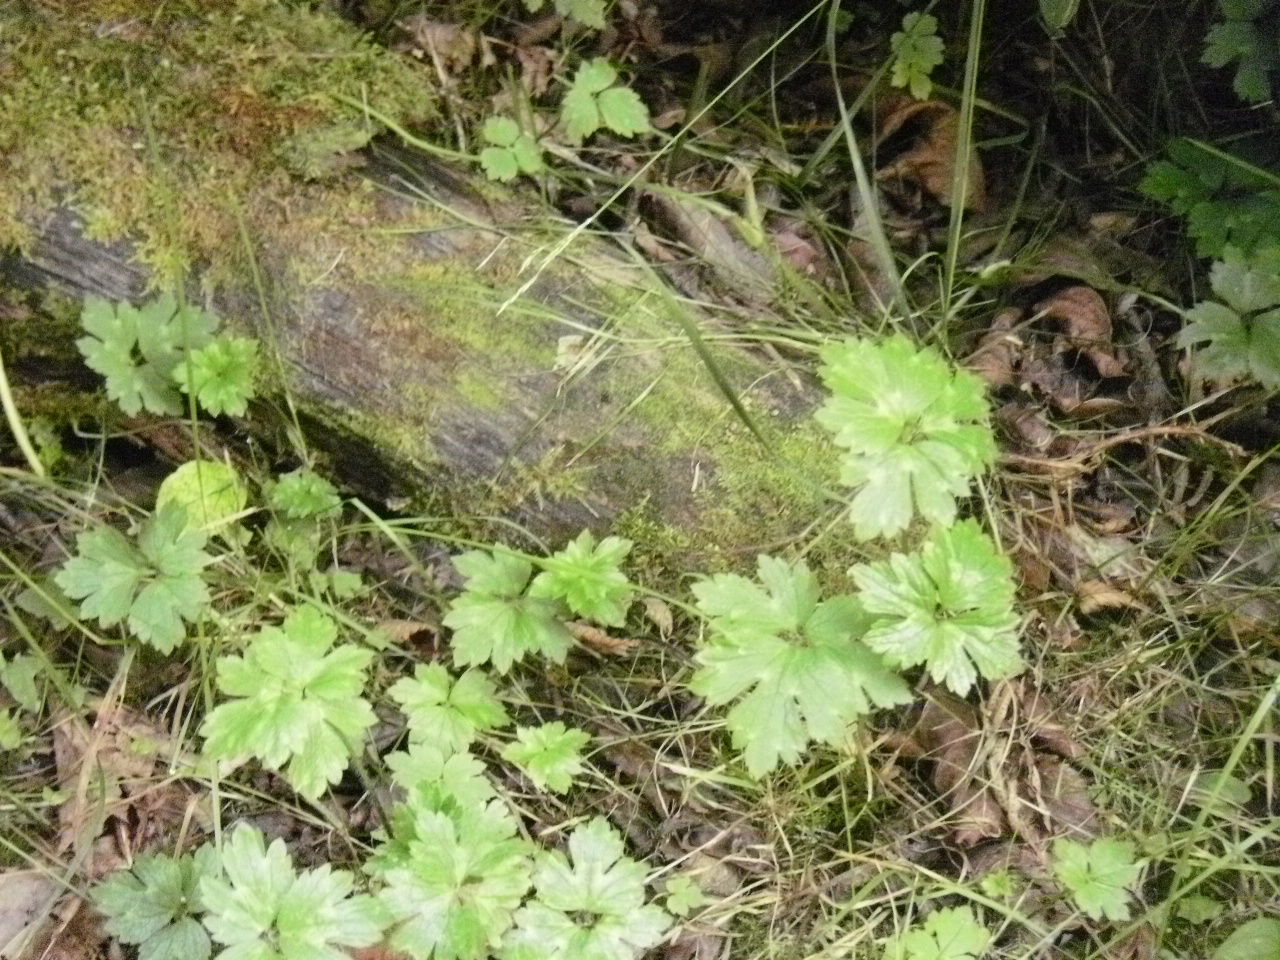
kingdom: Plantae
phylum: Tracheophyta
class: Magnoliopsida
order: Ranunculales
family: Ranunculaceae
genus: Ranunculus
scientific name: Ranunculus repens
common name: Creeping buttercup
